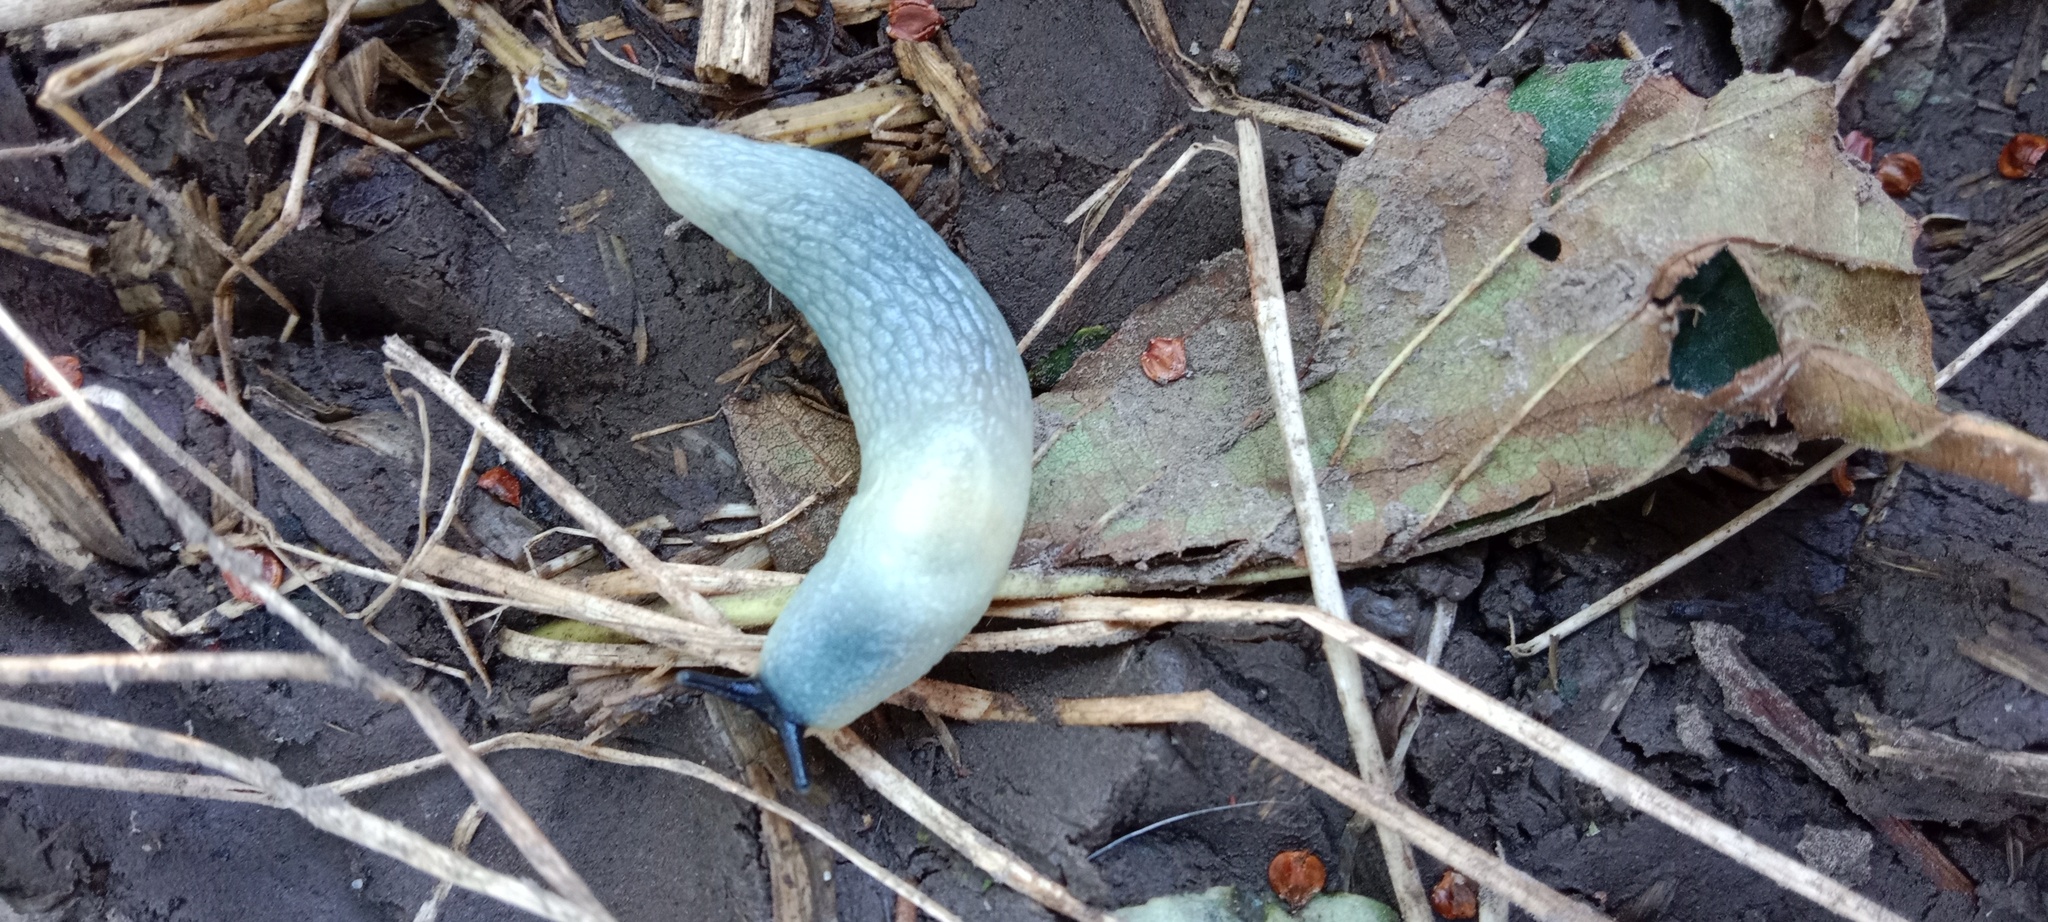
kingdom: Animalia
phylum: Mollusca
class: Gastropoda
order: Stylommatophora
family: Agriolimacidae
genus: Krynickillus
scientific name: Krynickillus melanocephalus
